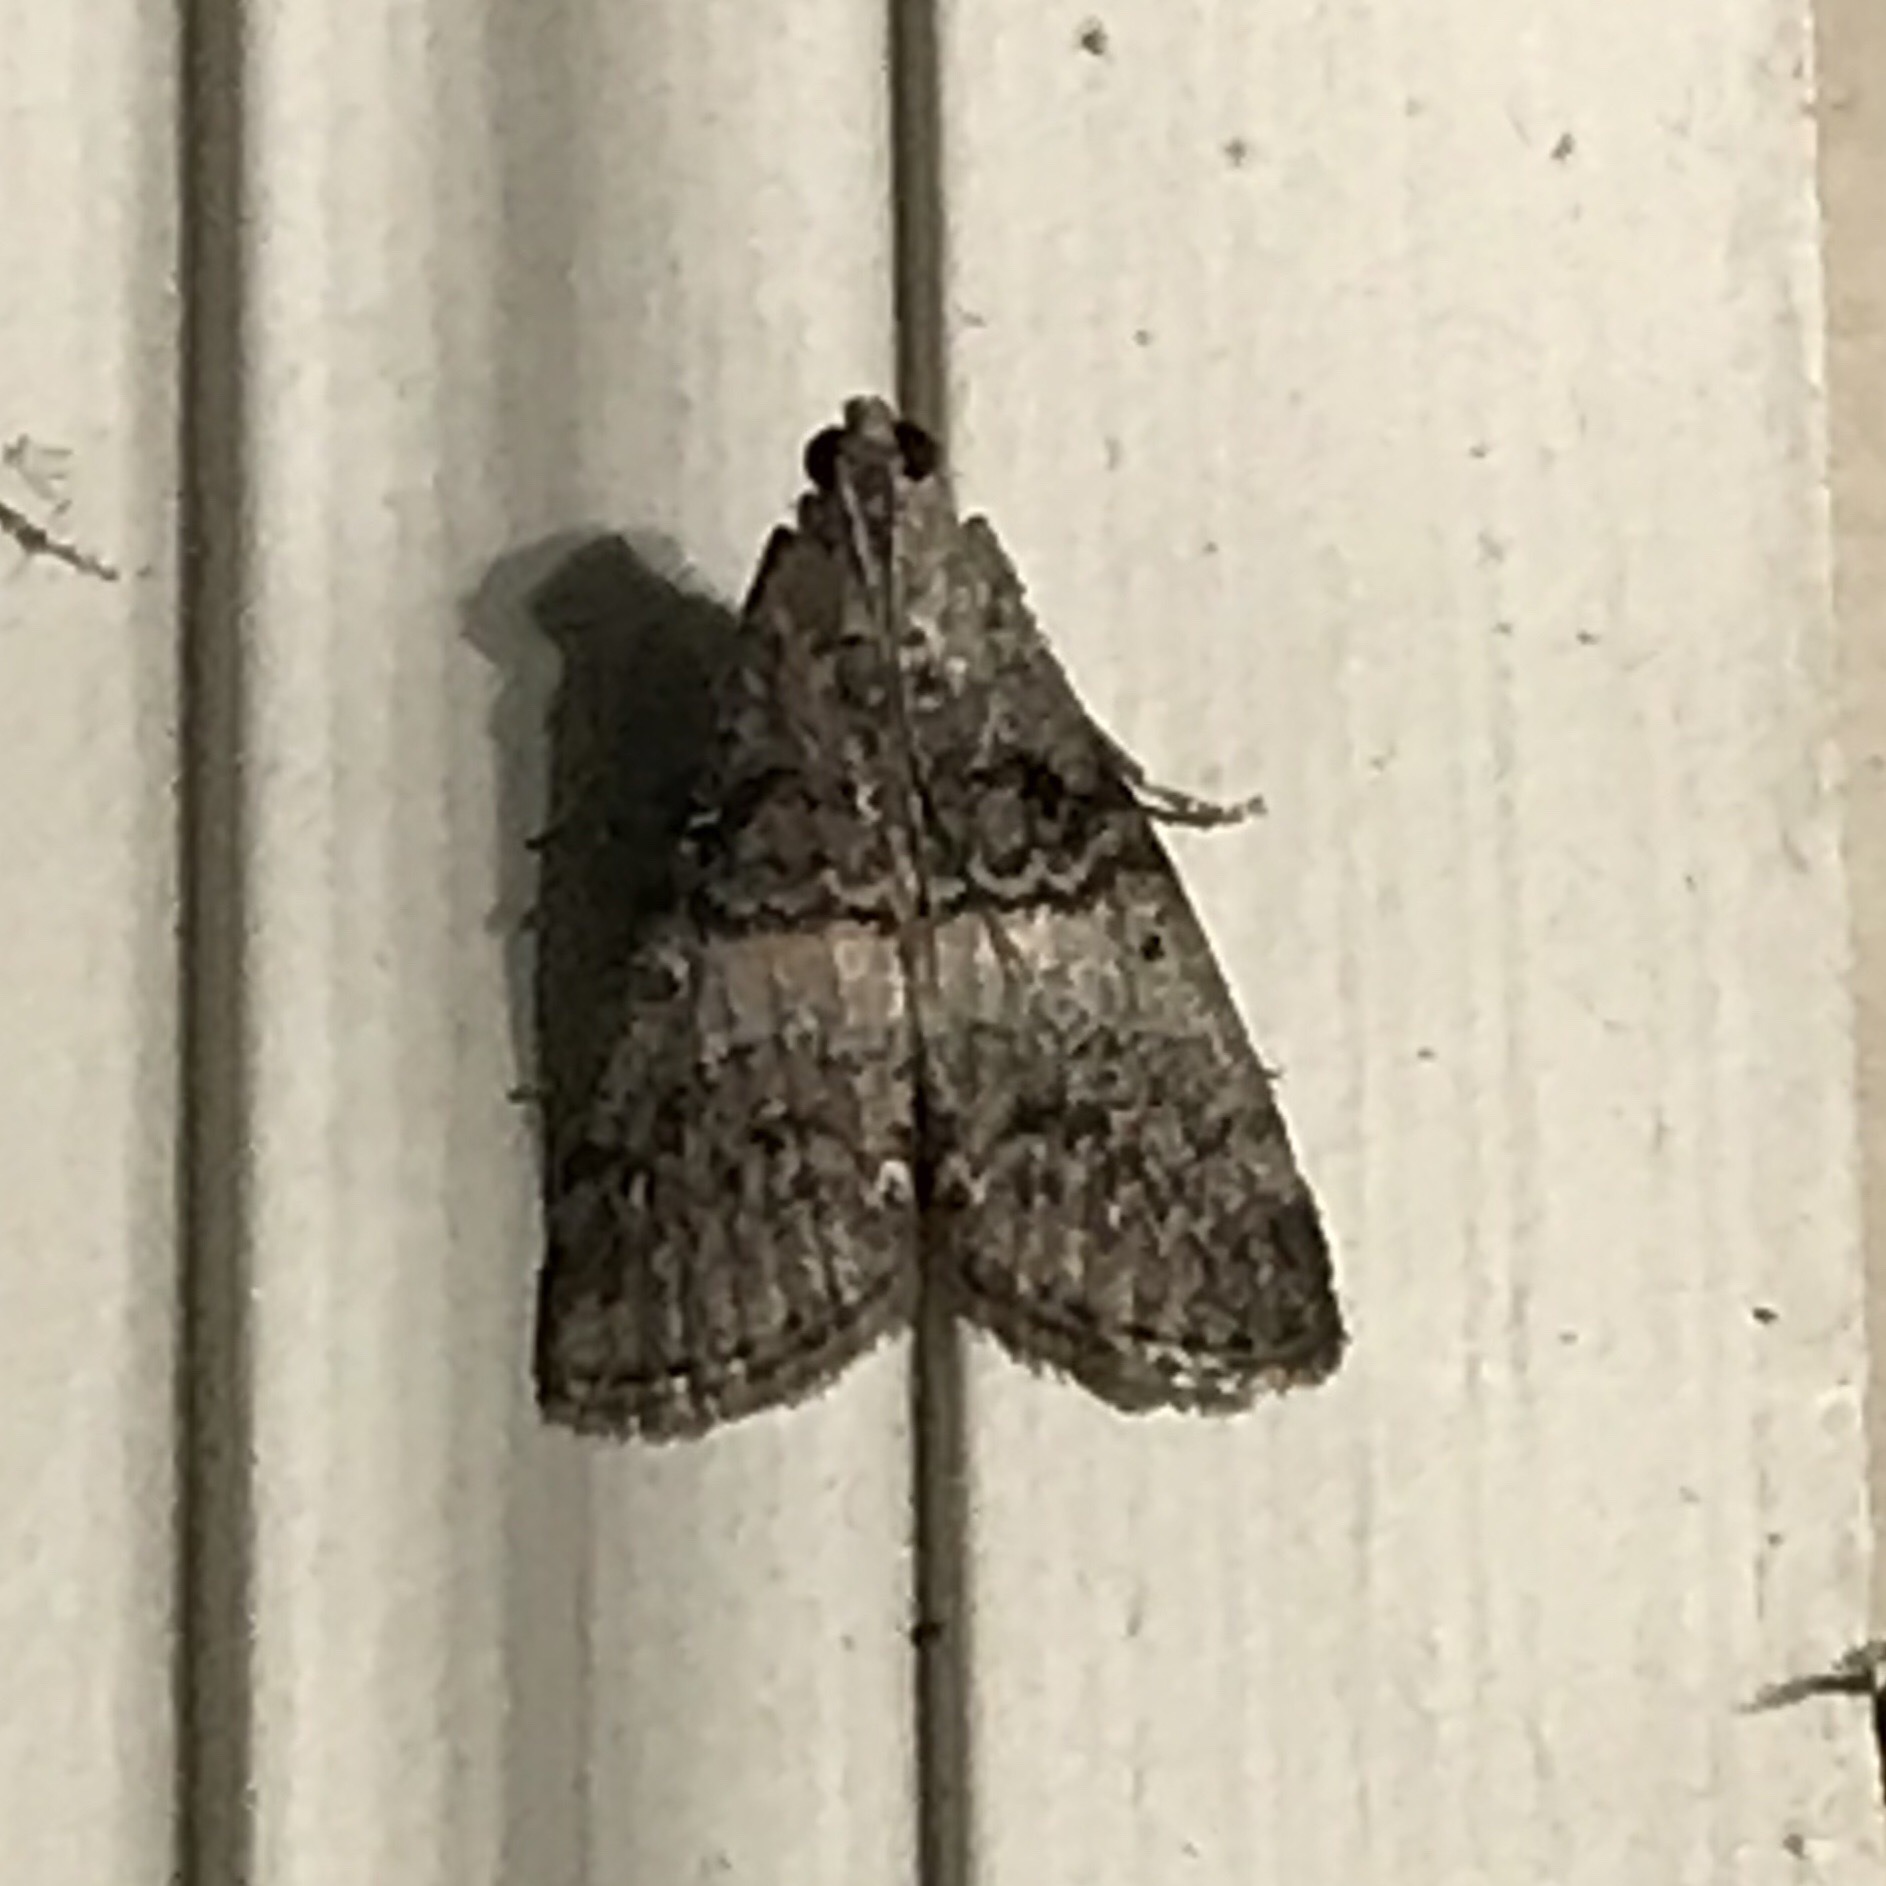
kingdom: Animalia
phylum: Arthropoda
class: Insecta
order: Lepidoptera
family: Pyralidae
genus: Pococera
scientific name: Pococera asperatella
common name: Maple webworm moth
